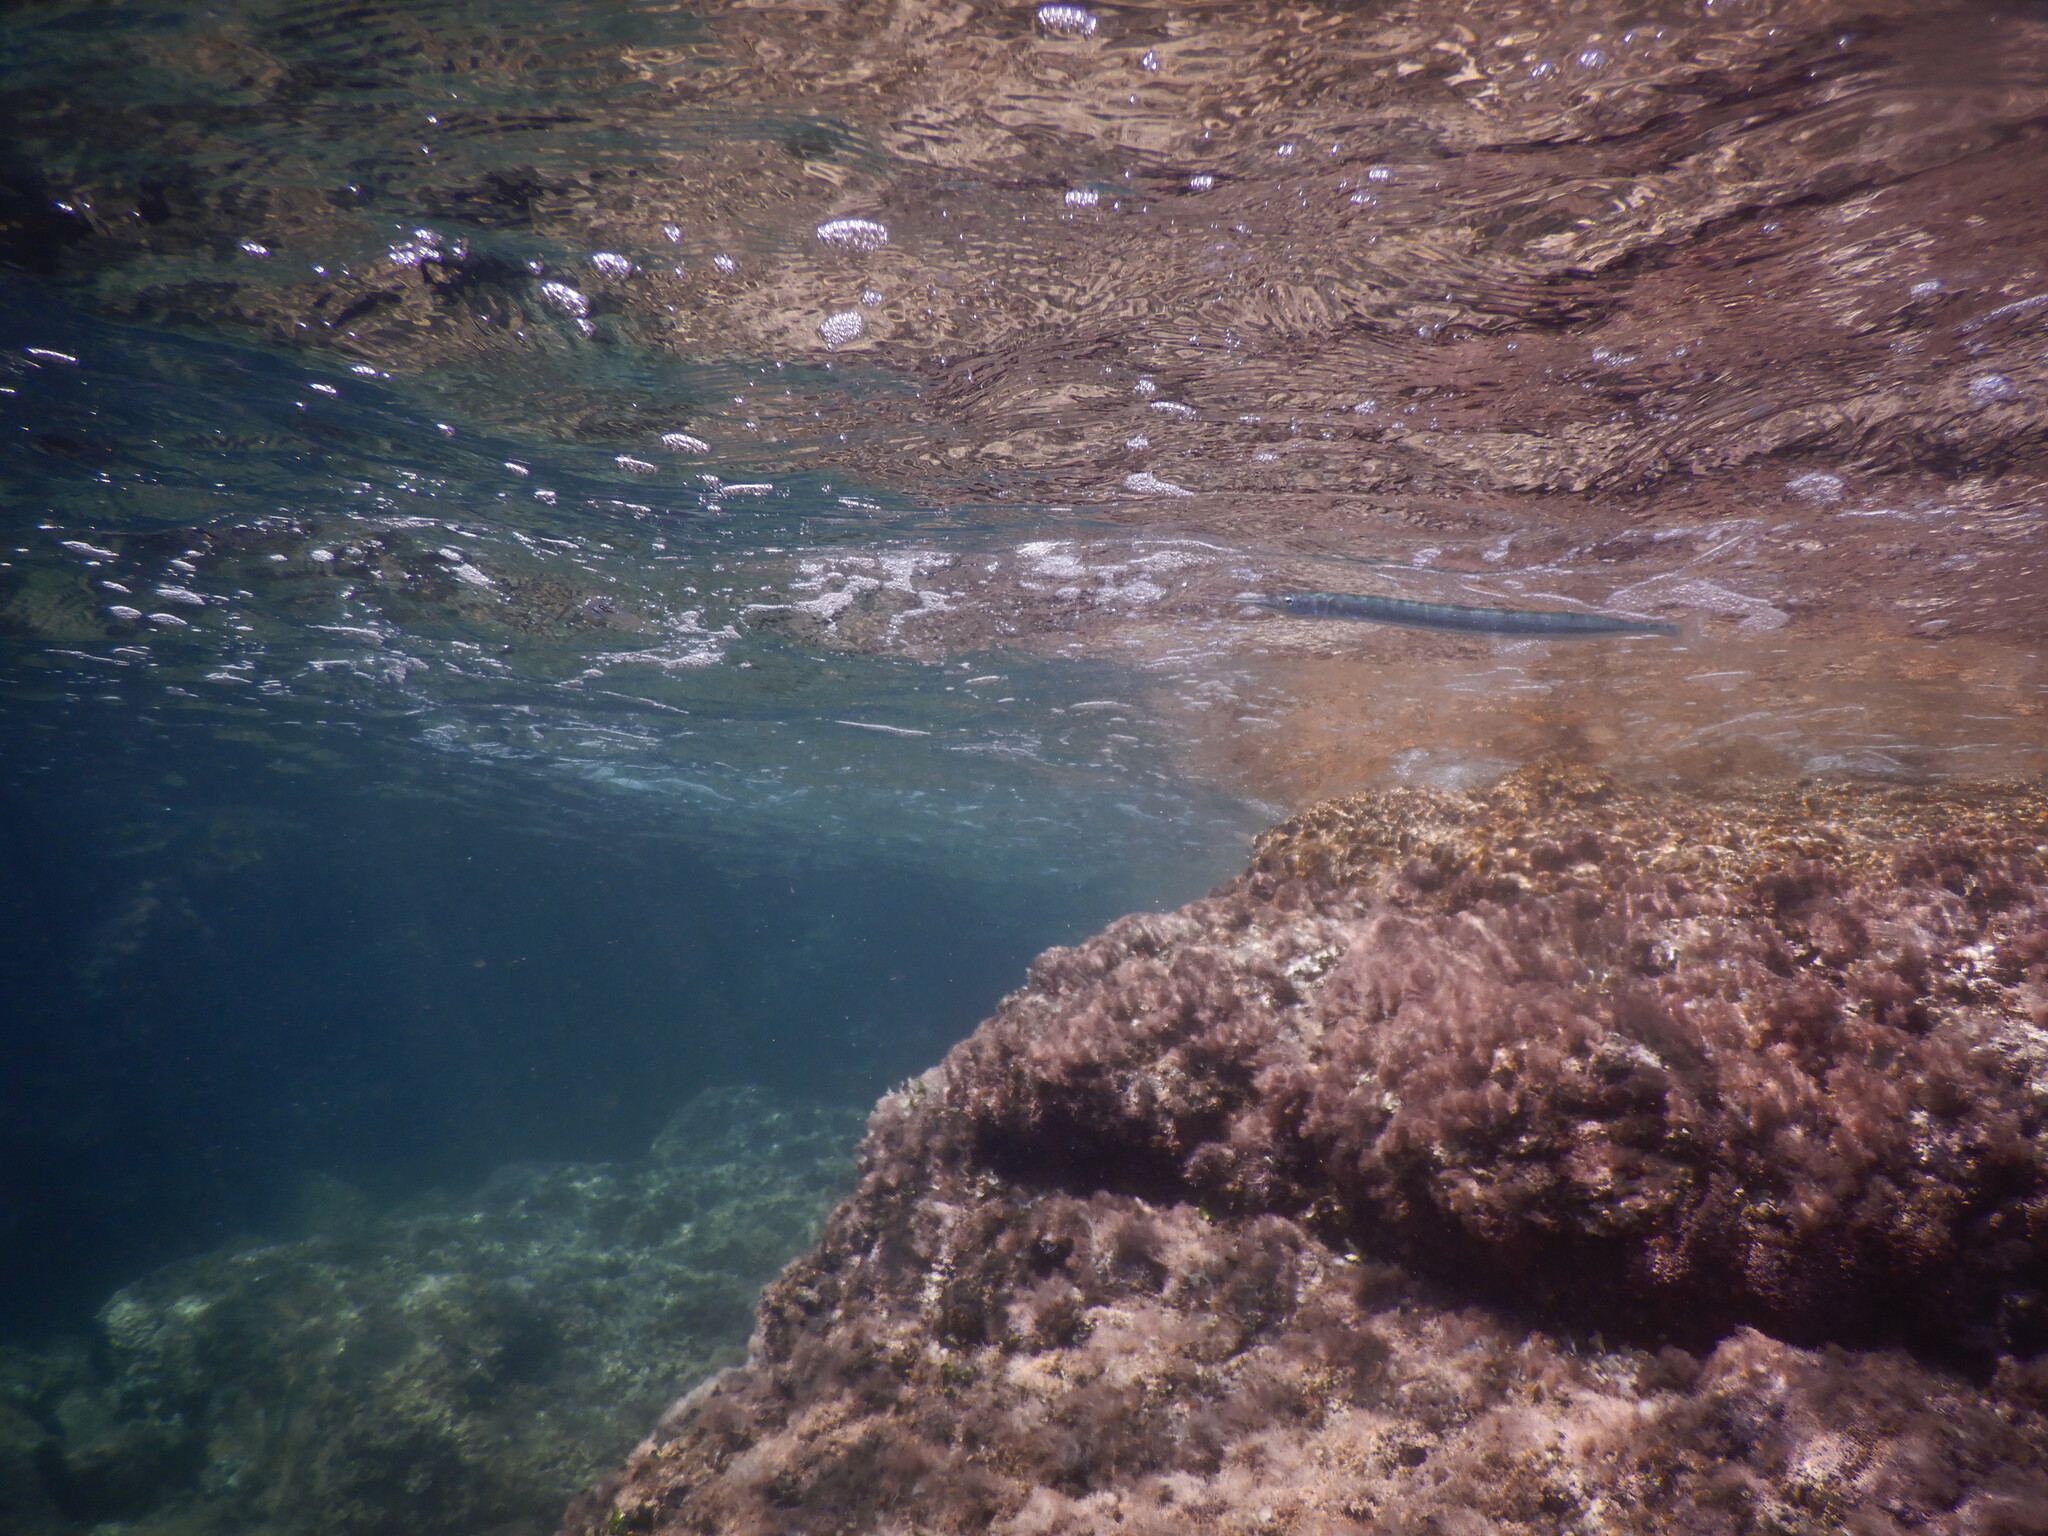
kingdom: Animalia
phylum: Chordata
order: Beloniformes
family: Belonidae
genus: Belone
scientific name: Belone belone
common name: Garfish
